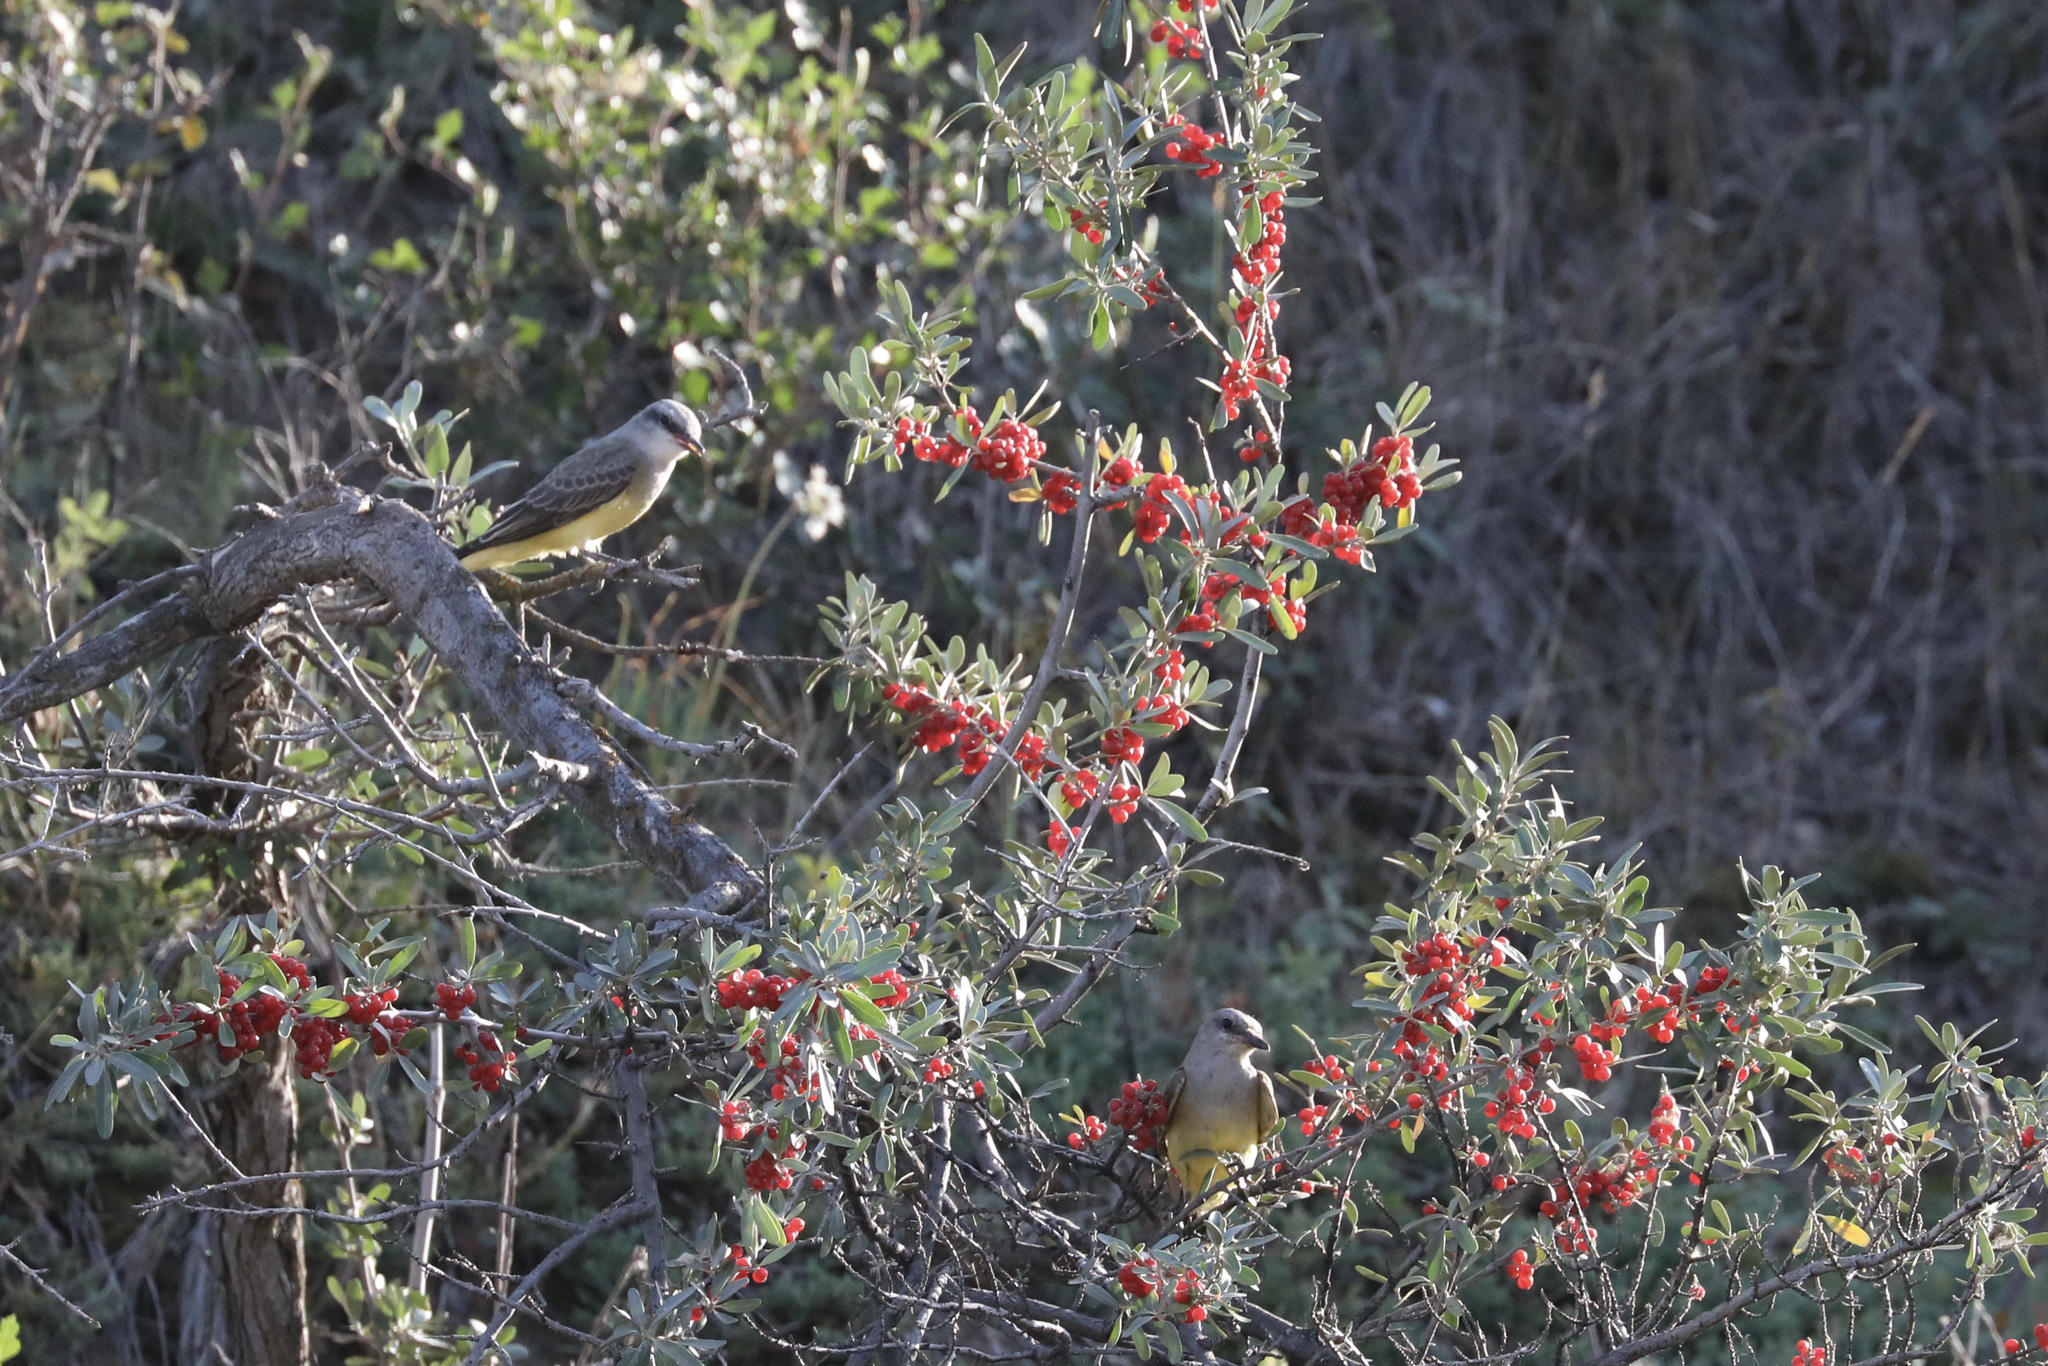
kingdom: Animalia
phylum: Chordata
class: Aves
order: Passeriformes
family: Tyrannidae
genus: Tyrannus
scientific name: Tyrannus verticalis
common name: Western kingbird
